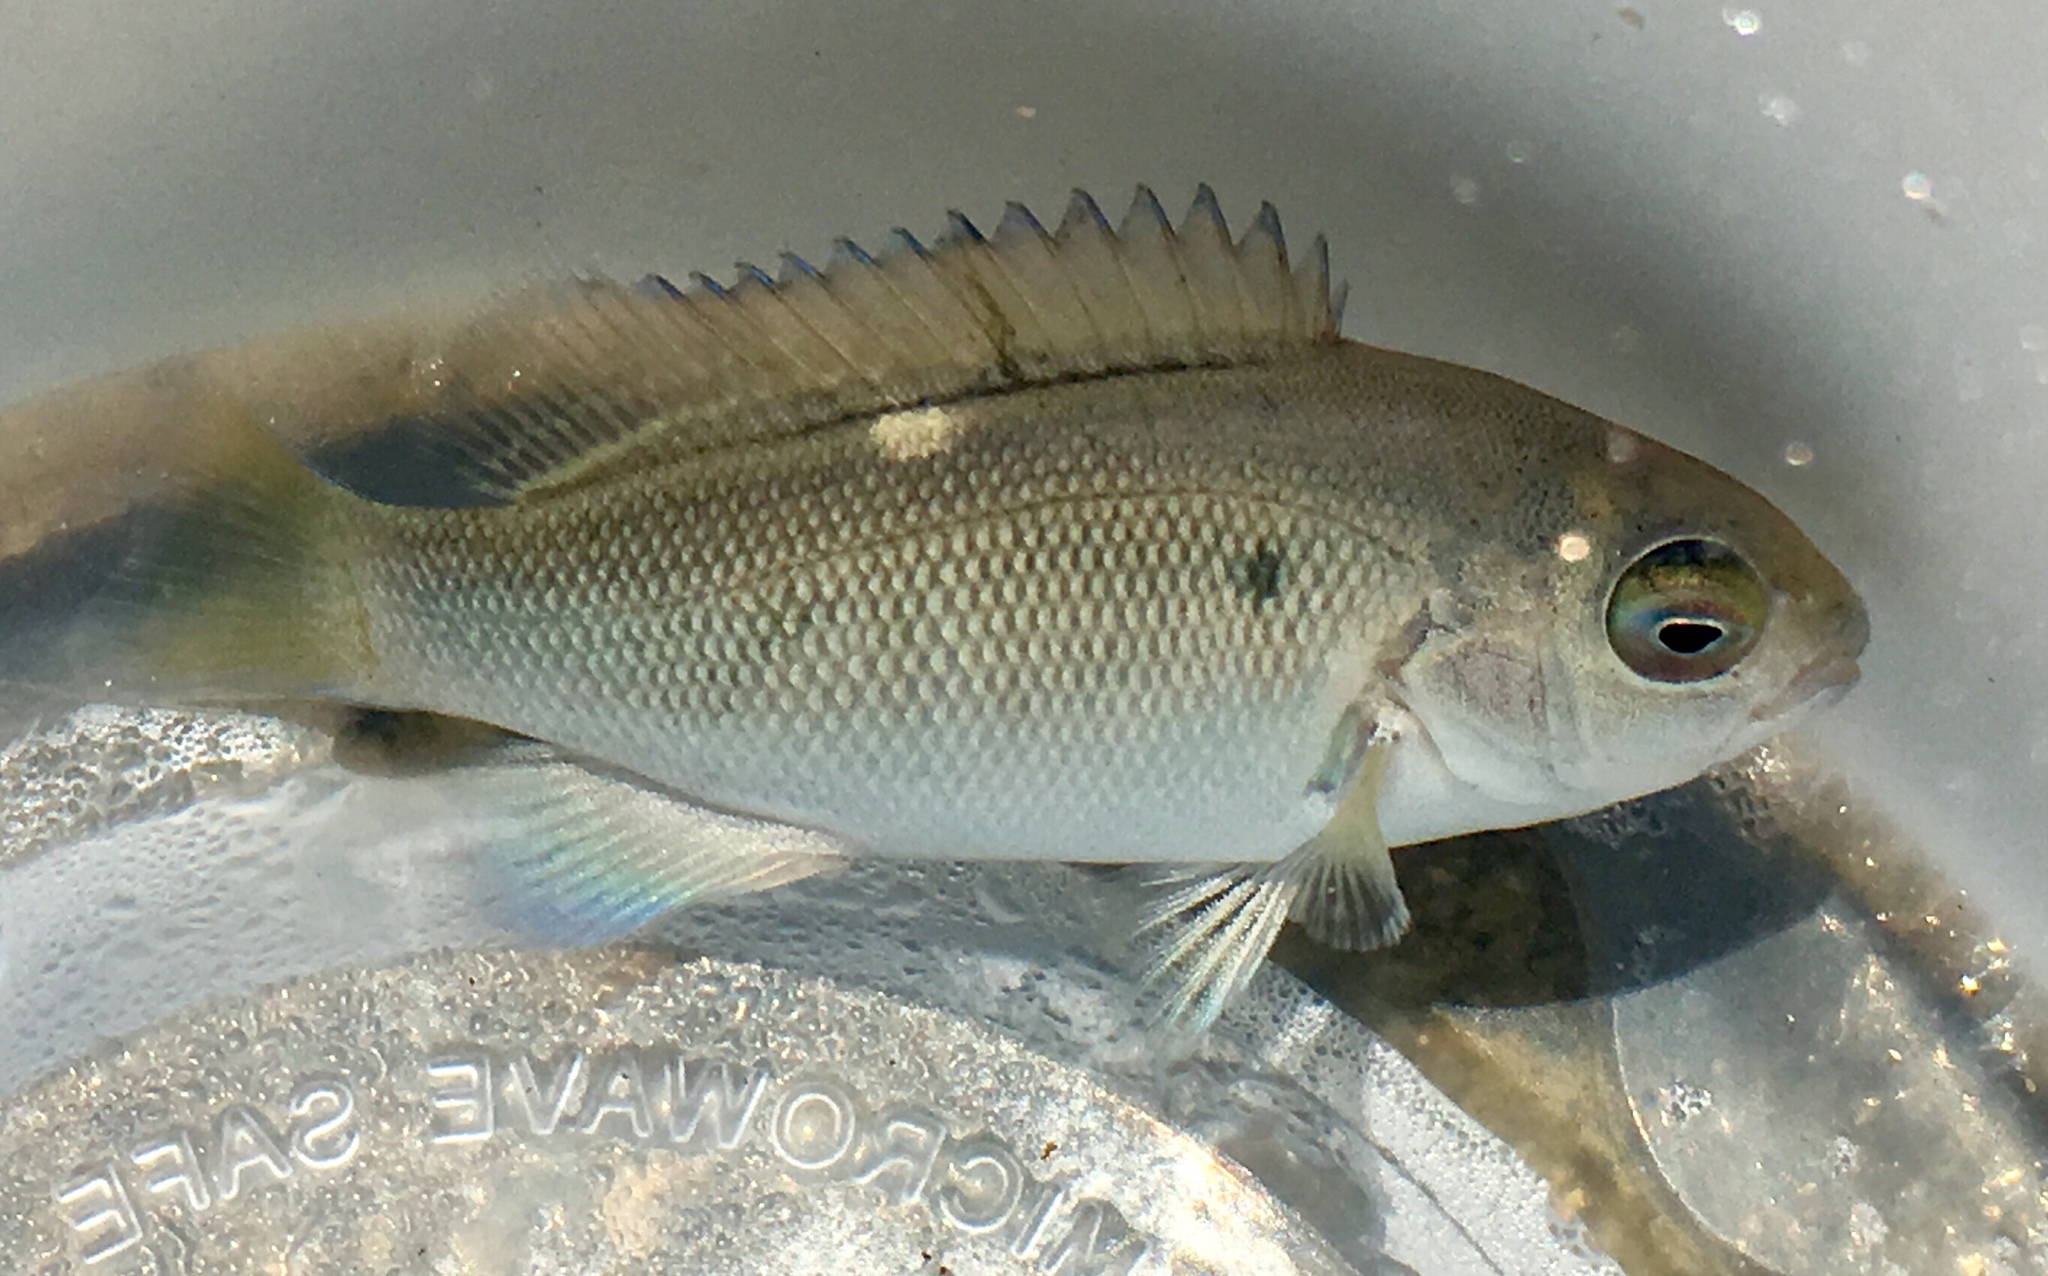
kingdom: Animalia
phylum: Chordata
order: Perciformes
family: Kyphosidae
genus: Girella
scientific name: Girella nigricans
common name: Opaleye
